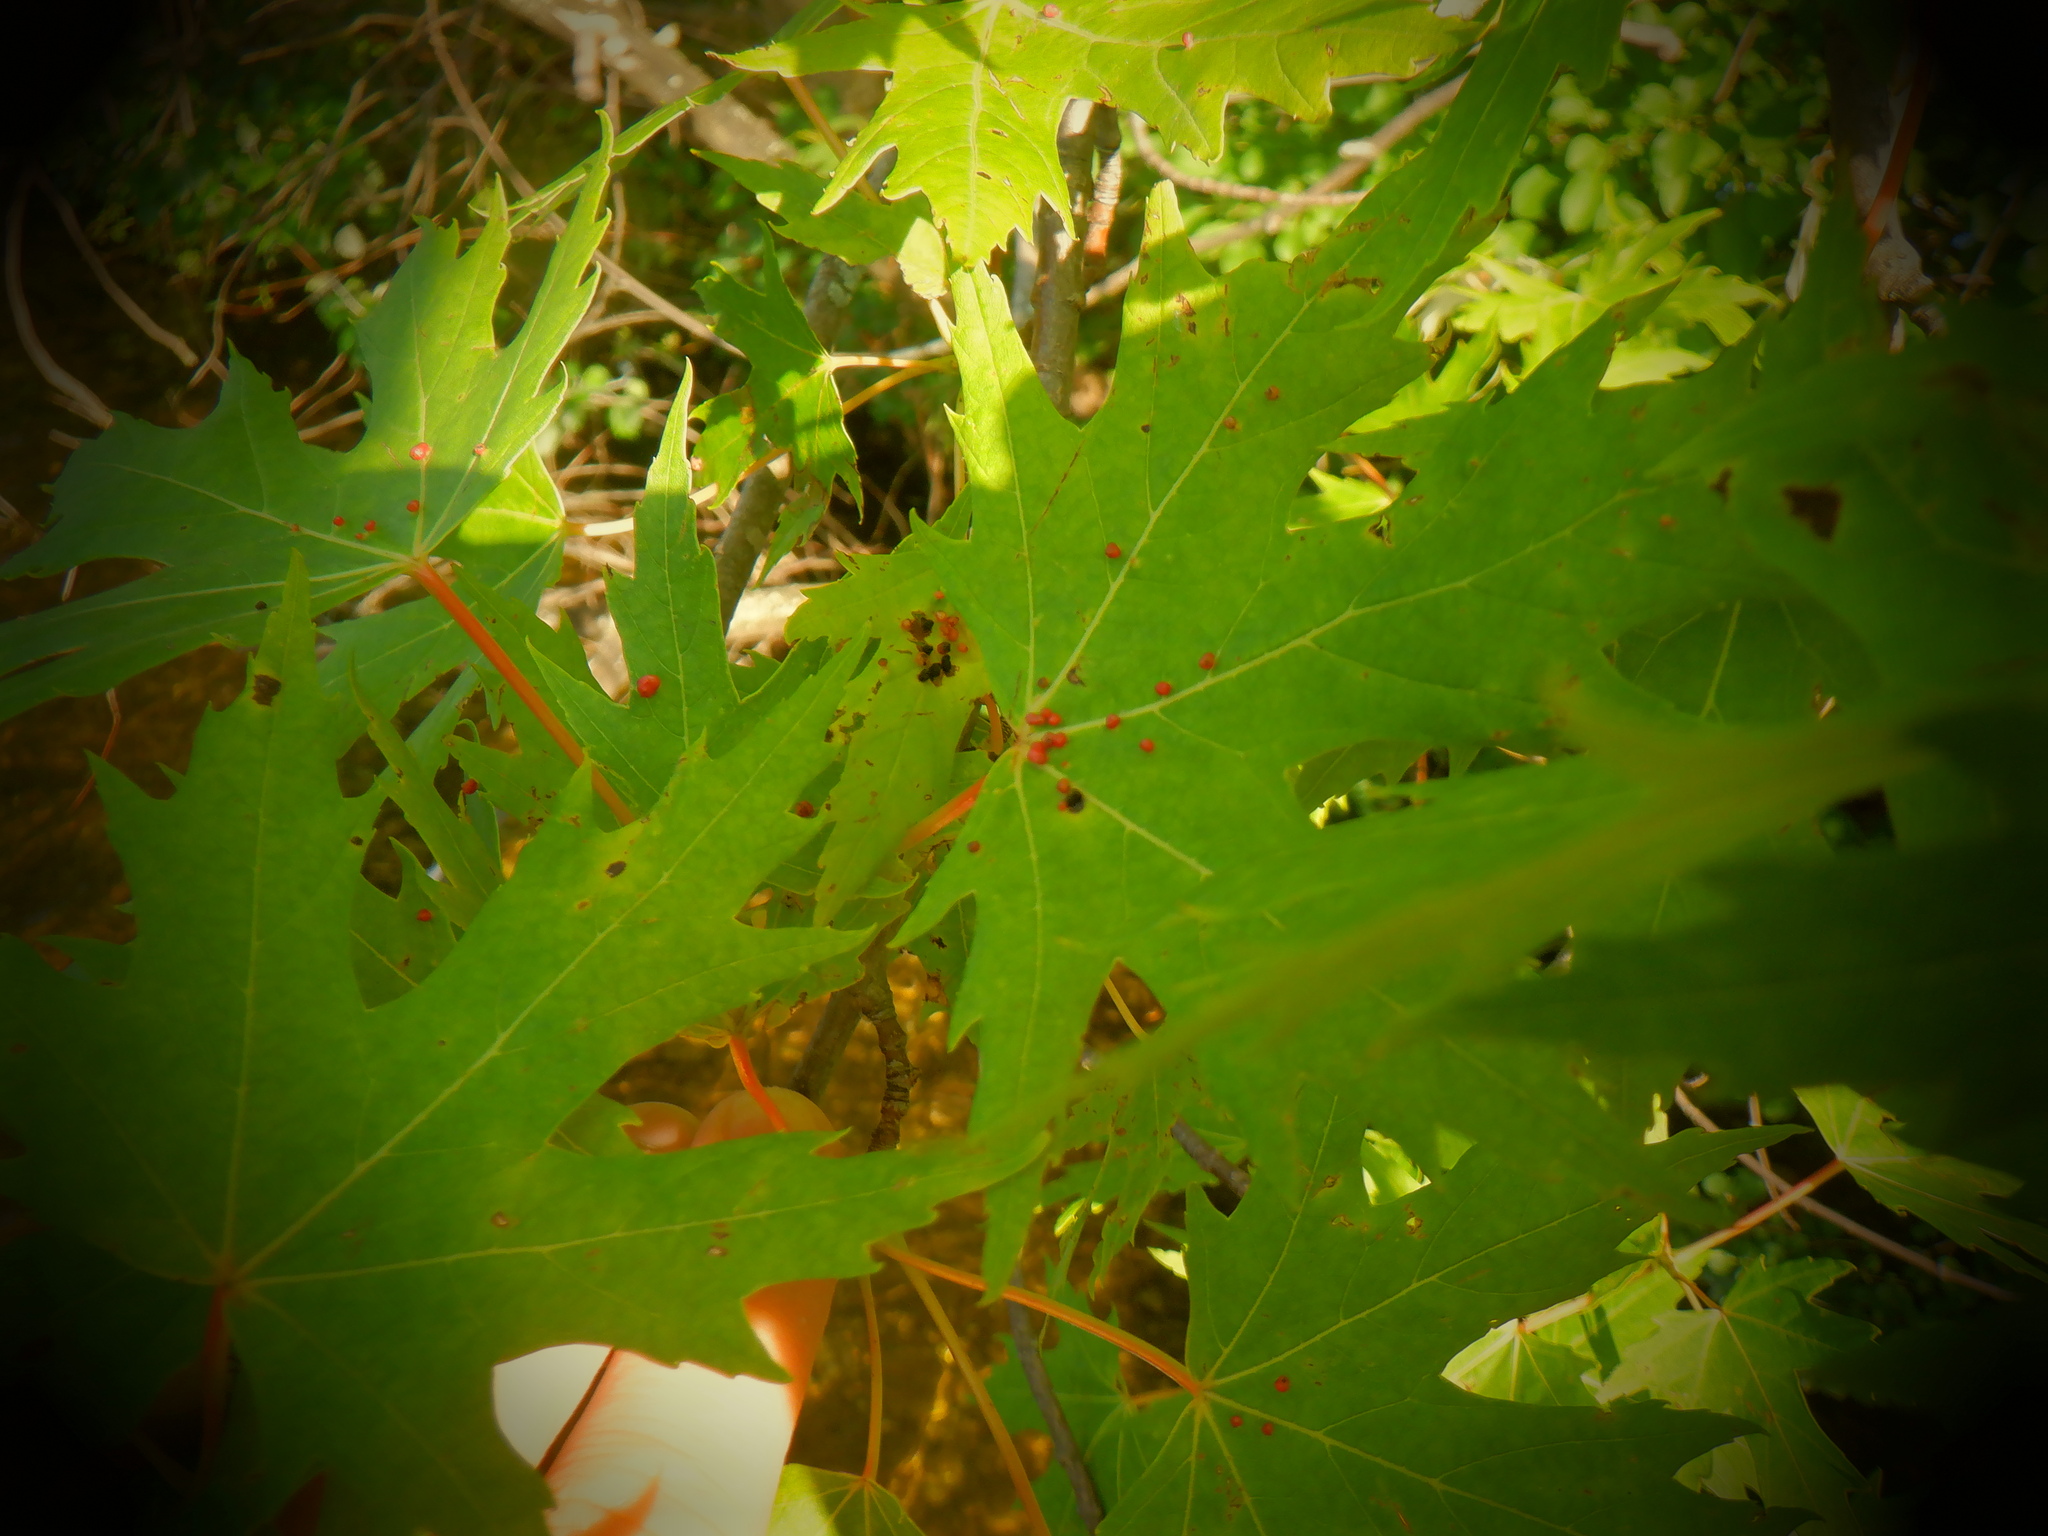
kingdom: Animalia
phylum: Arthropoda
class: Arachnida
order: Trombidiformes
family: Eriophyidae
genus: Vasates
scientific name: Vasates quadripedes
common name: Maple bladder gall mite
